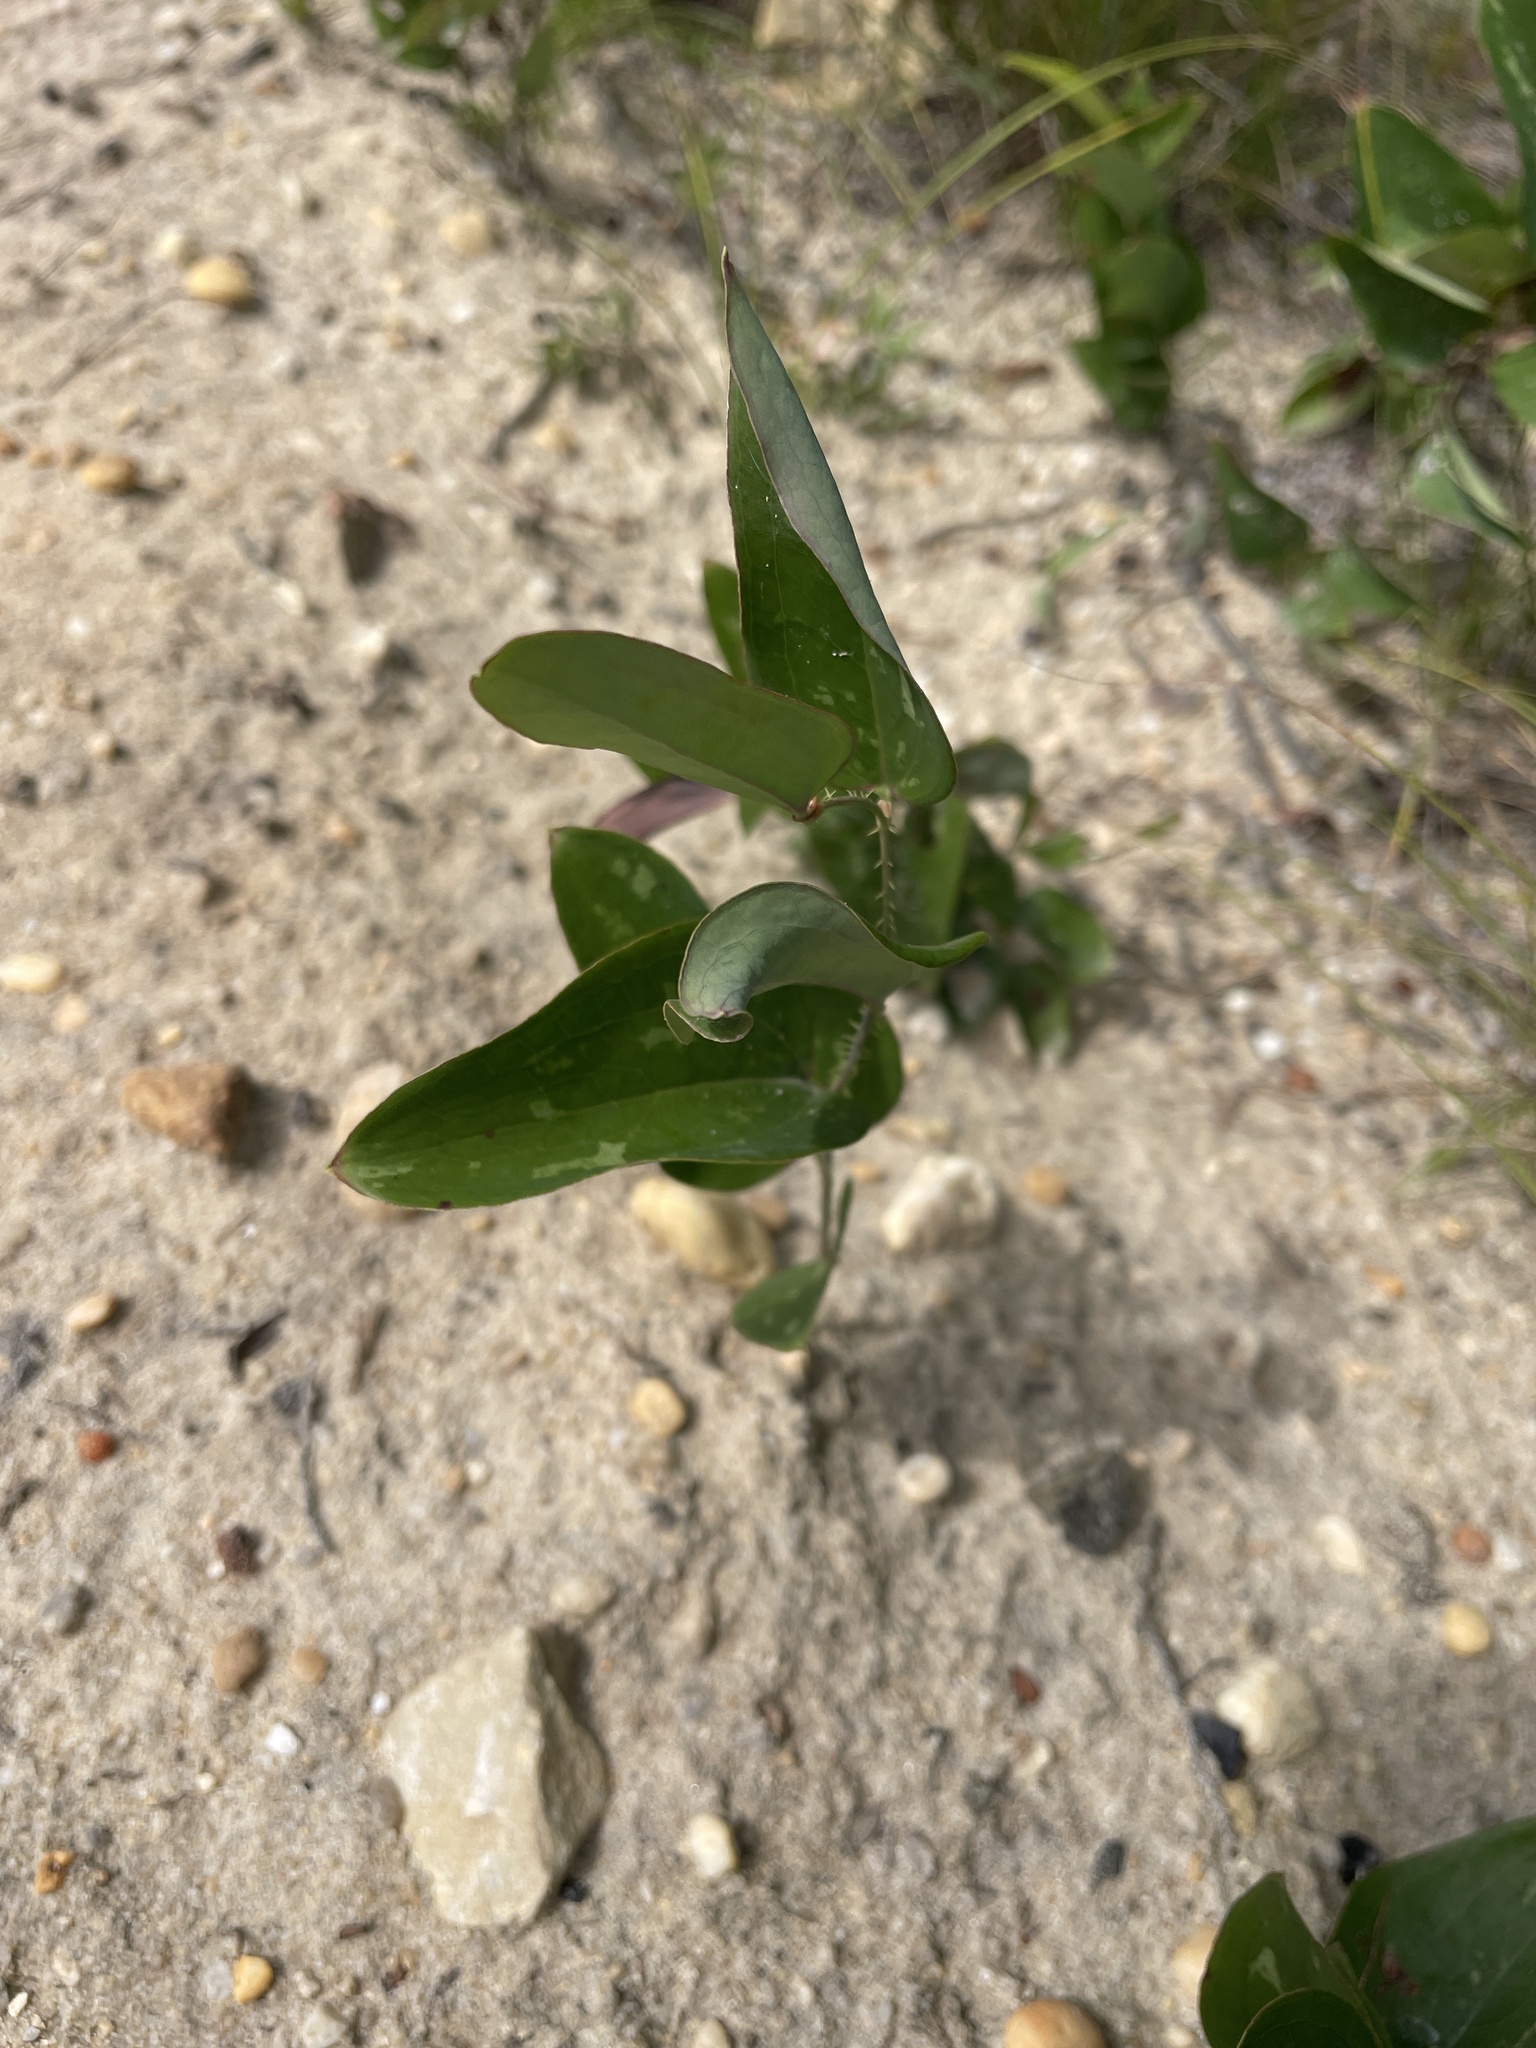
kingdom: Plantae
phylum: Tracheophyta
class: Liliopsida
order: Liliales
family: Smilacaceae
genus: Smilax
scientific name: Smilax glauca
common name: Cat greenbrier
